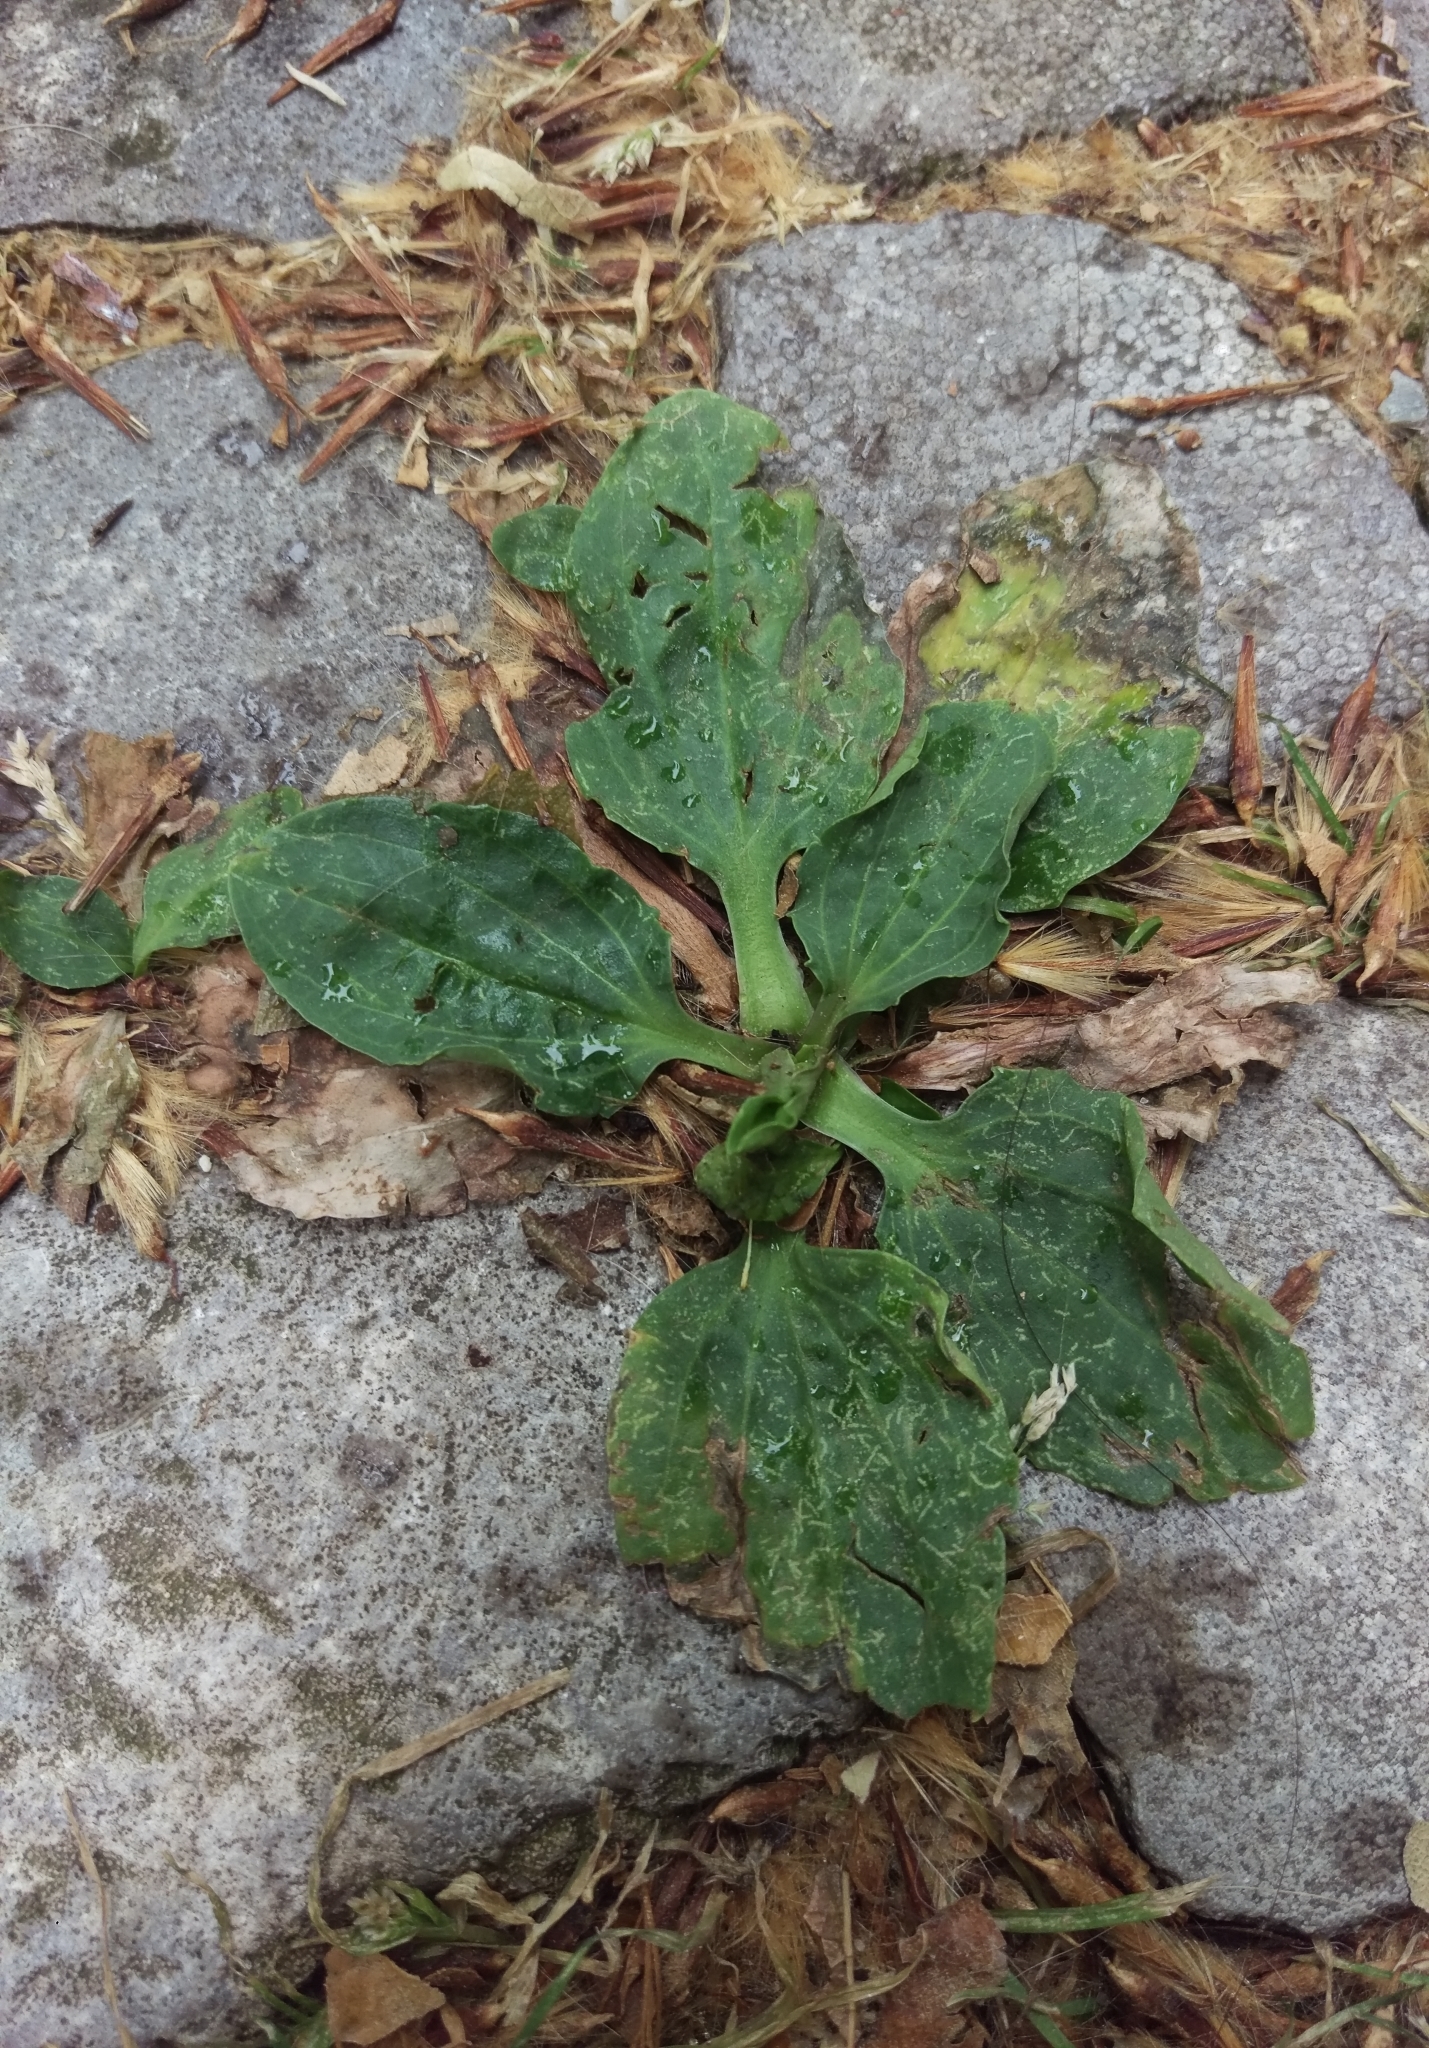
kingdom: Plantae
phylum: Tracheophyta
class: Magnoliopsida
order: Lamiales
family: Plantaginaceae
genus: Plantago
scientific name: Plantago major
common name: Common plantain
